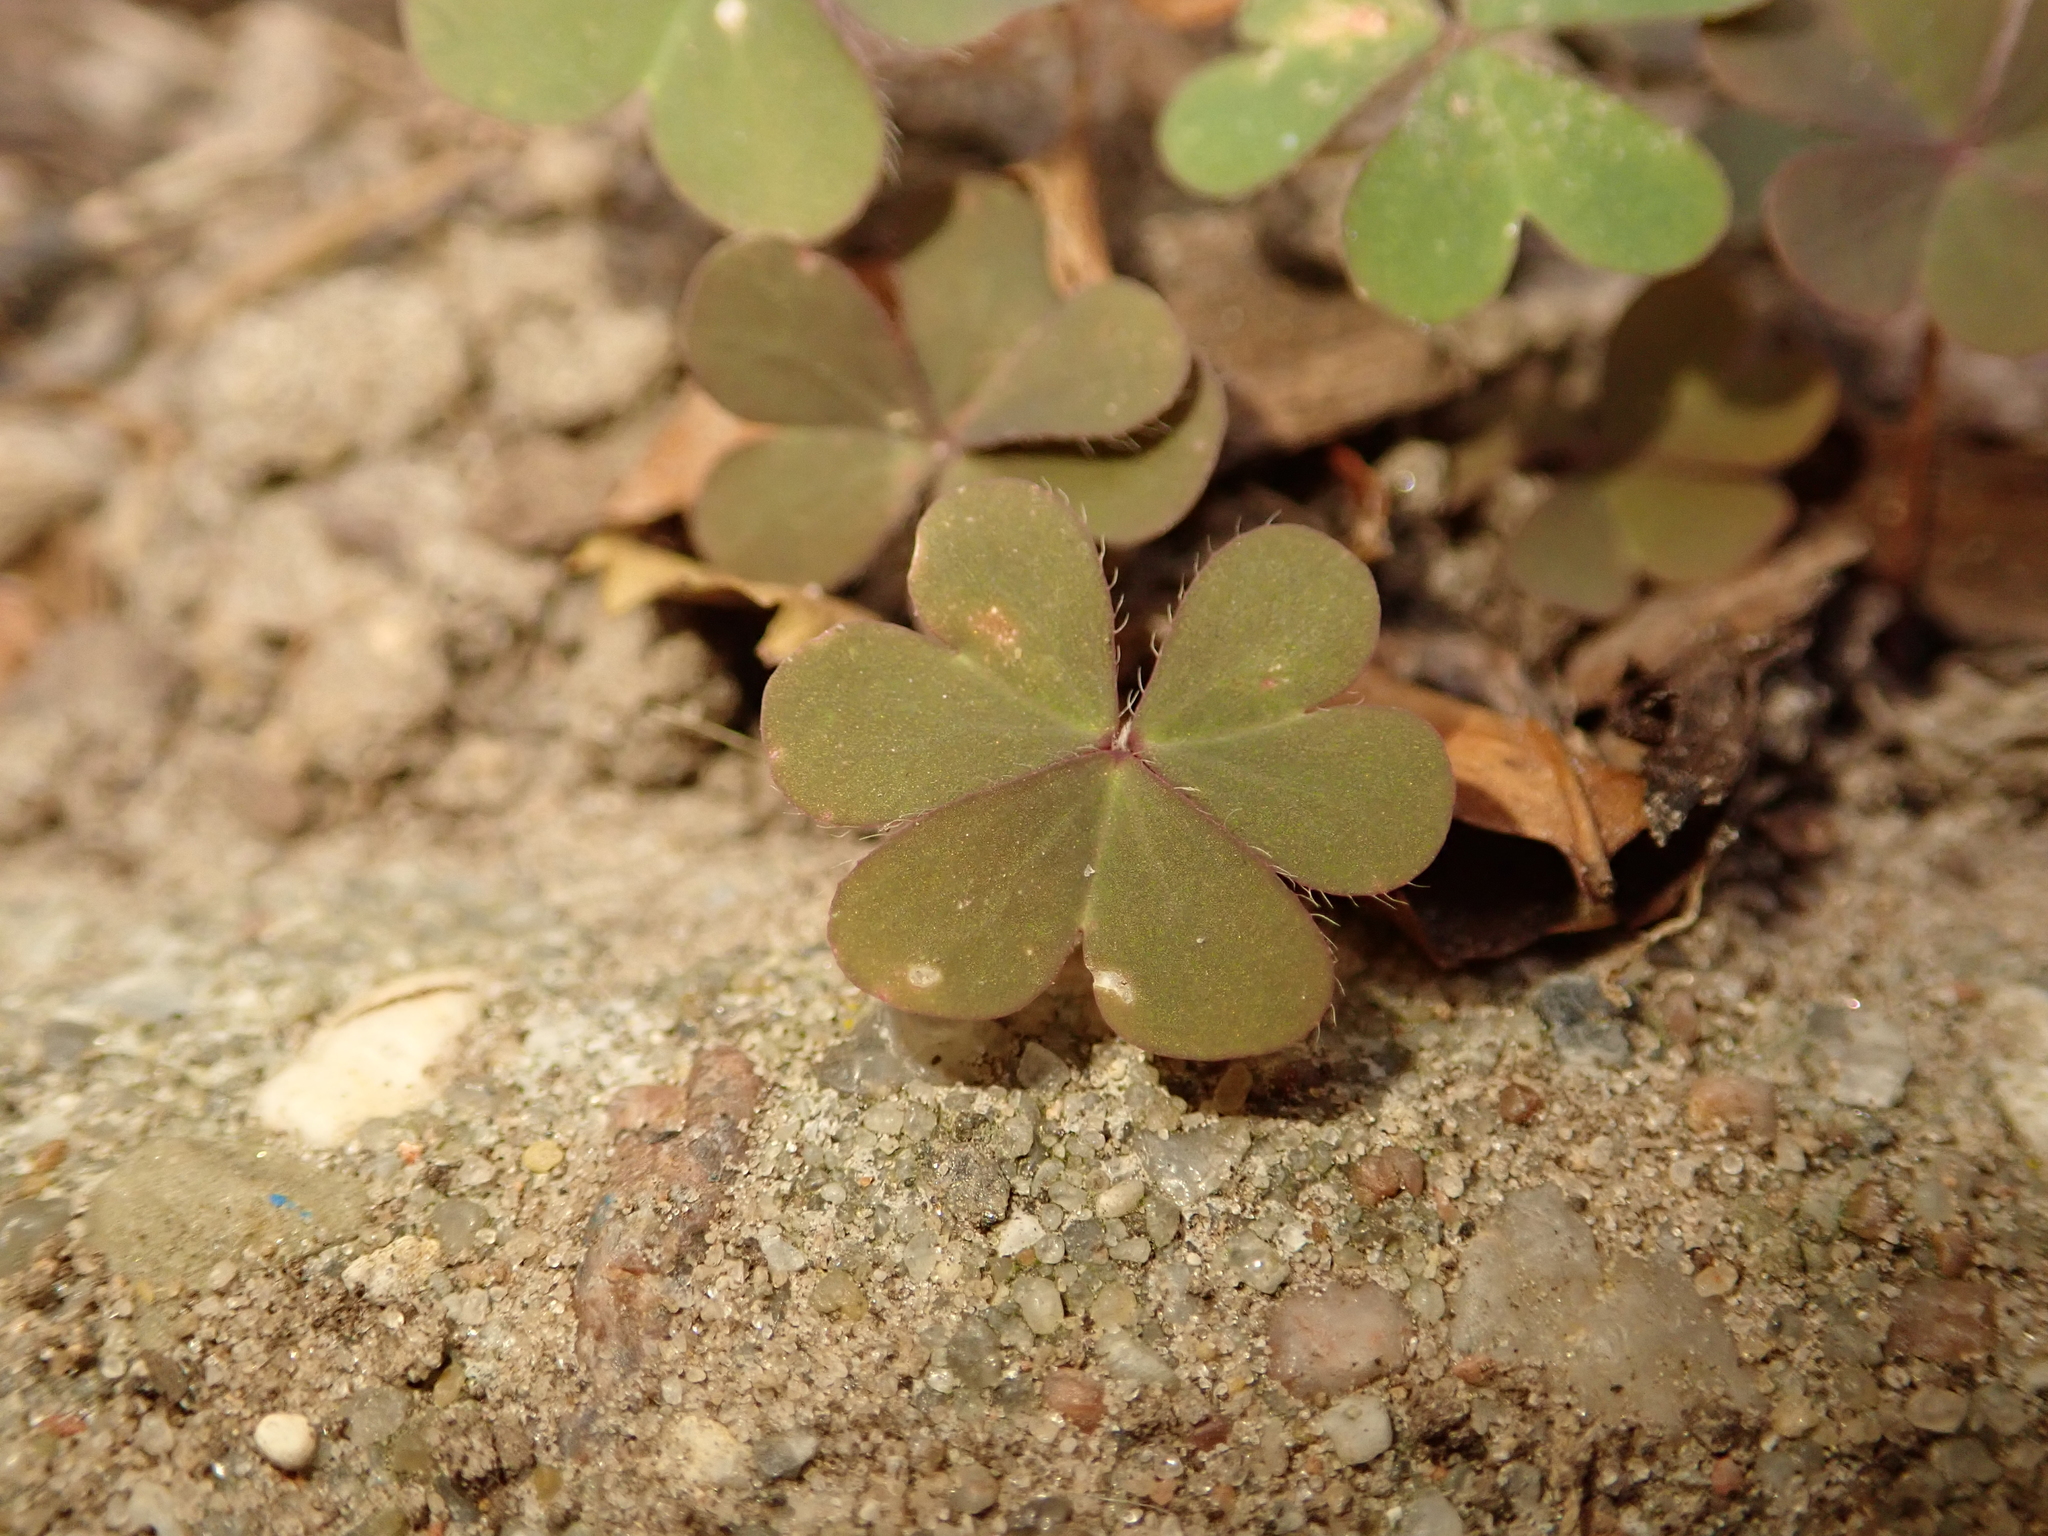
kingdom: Plantae
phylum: Tracheophyta
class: Magnoliopsida
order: Oxalidales
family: Oxalidaceae
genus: Oxalis
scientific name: Oxalis corniculata
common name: Procumbent yellow-sorrel
